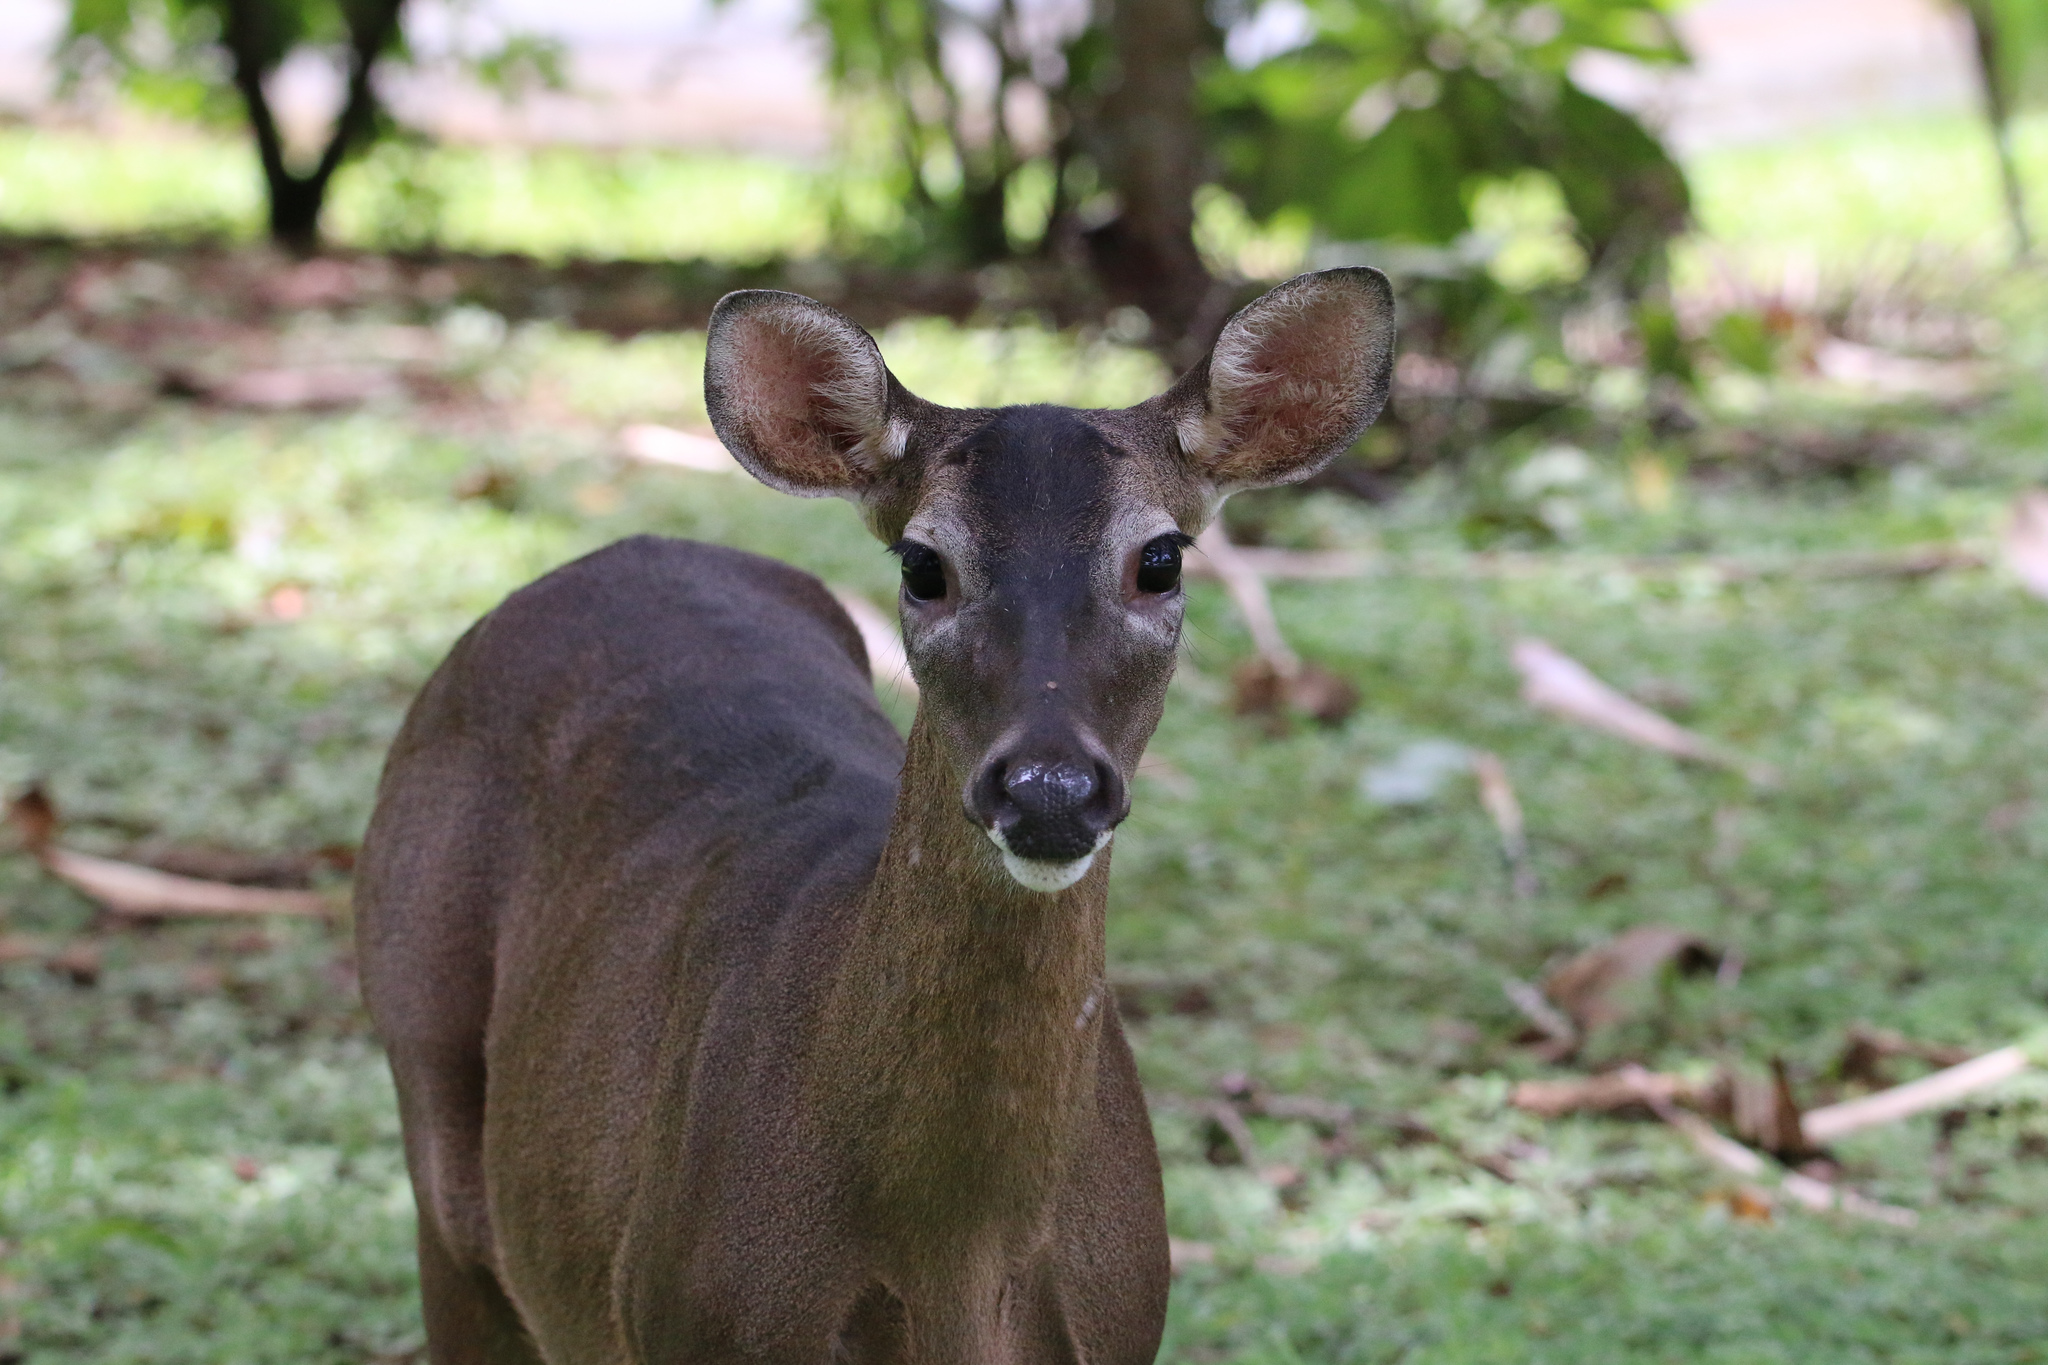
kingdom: Animalia
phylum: Chordata
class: Mammalia
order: Artiodactyla
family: Cervidae
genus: Odocoileus
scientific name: Odocoileus virginianus
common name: White-tailed deer
